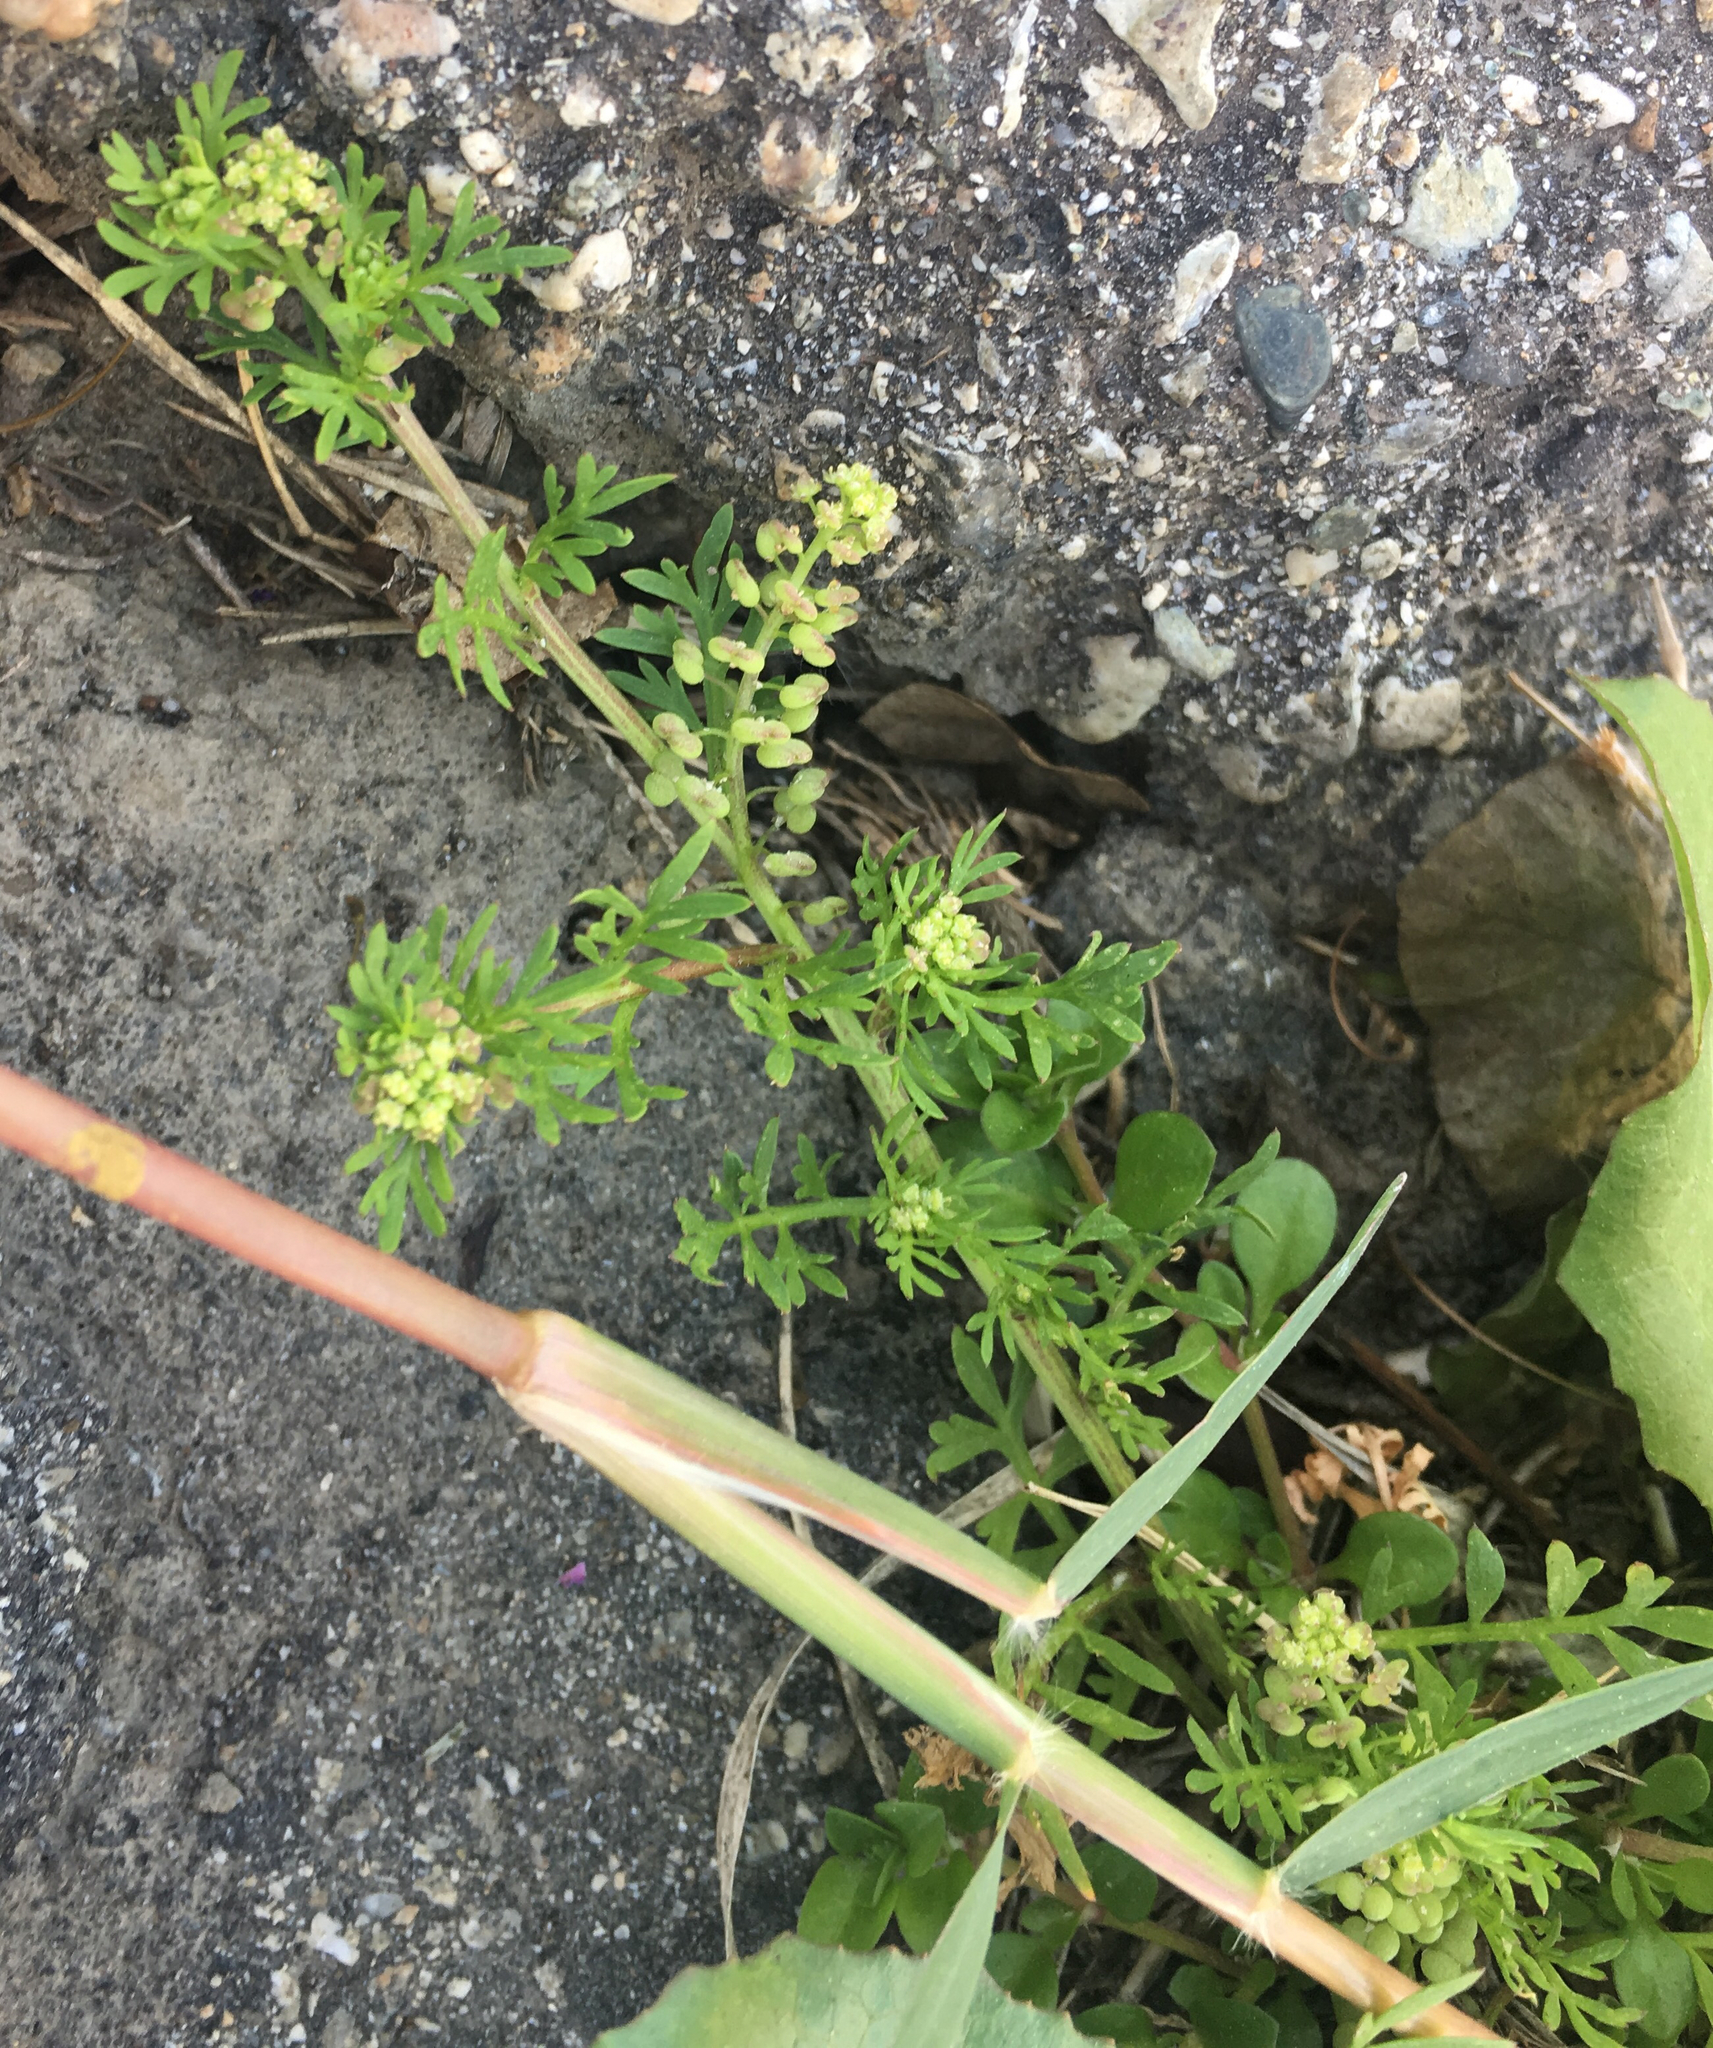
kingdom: Plantae
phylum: Tracheophyta
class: Magnoliopsida
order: Brassicales
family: Brassicaceae
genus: Lepidium
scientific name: Lepidium didymum
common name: Lesser swinecress
